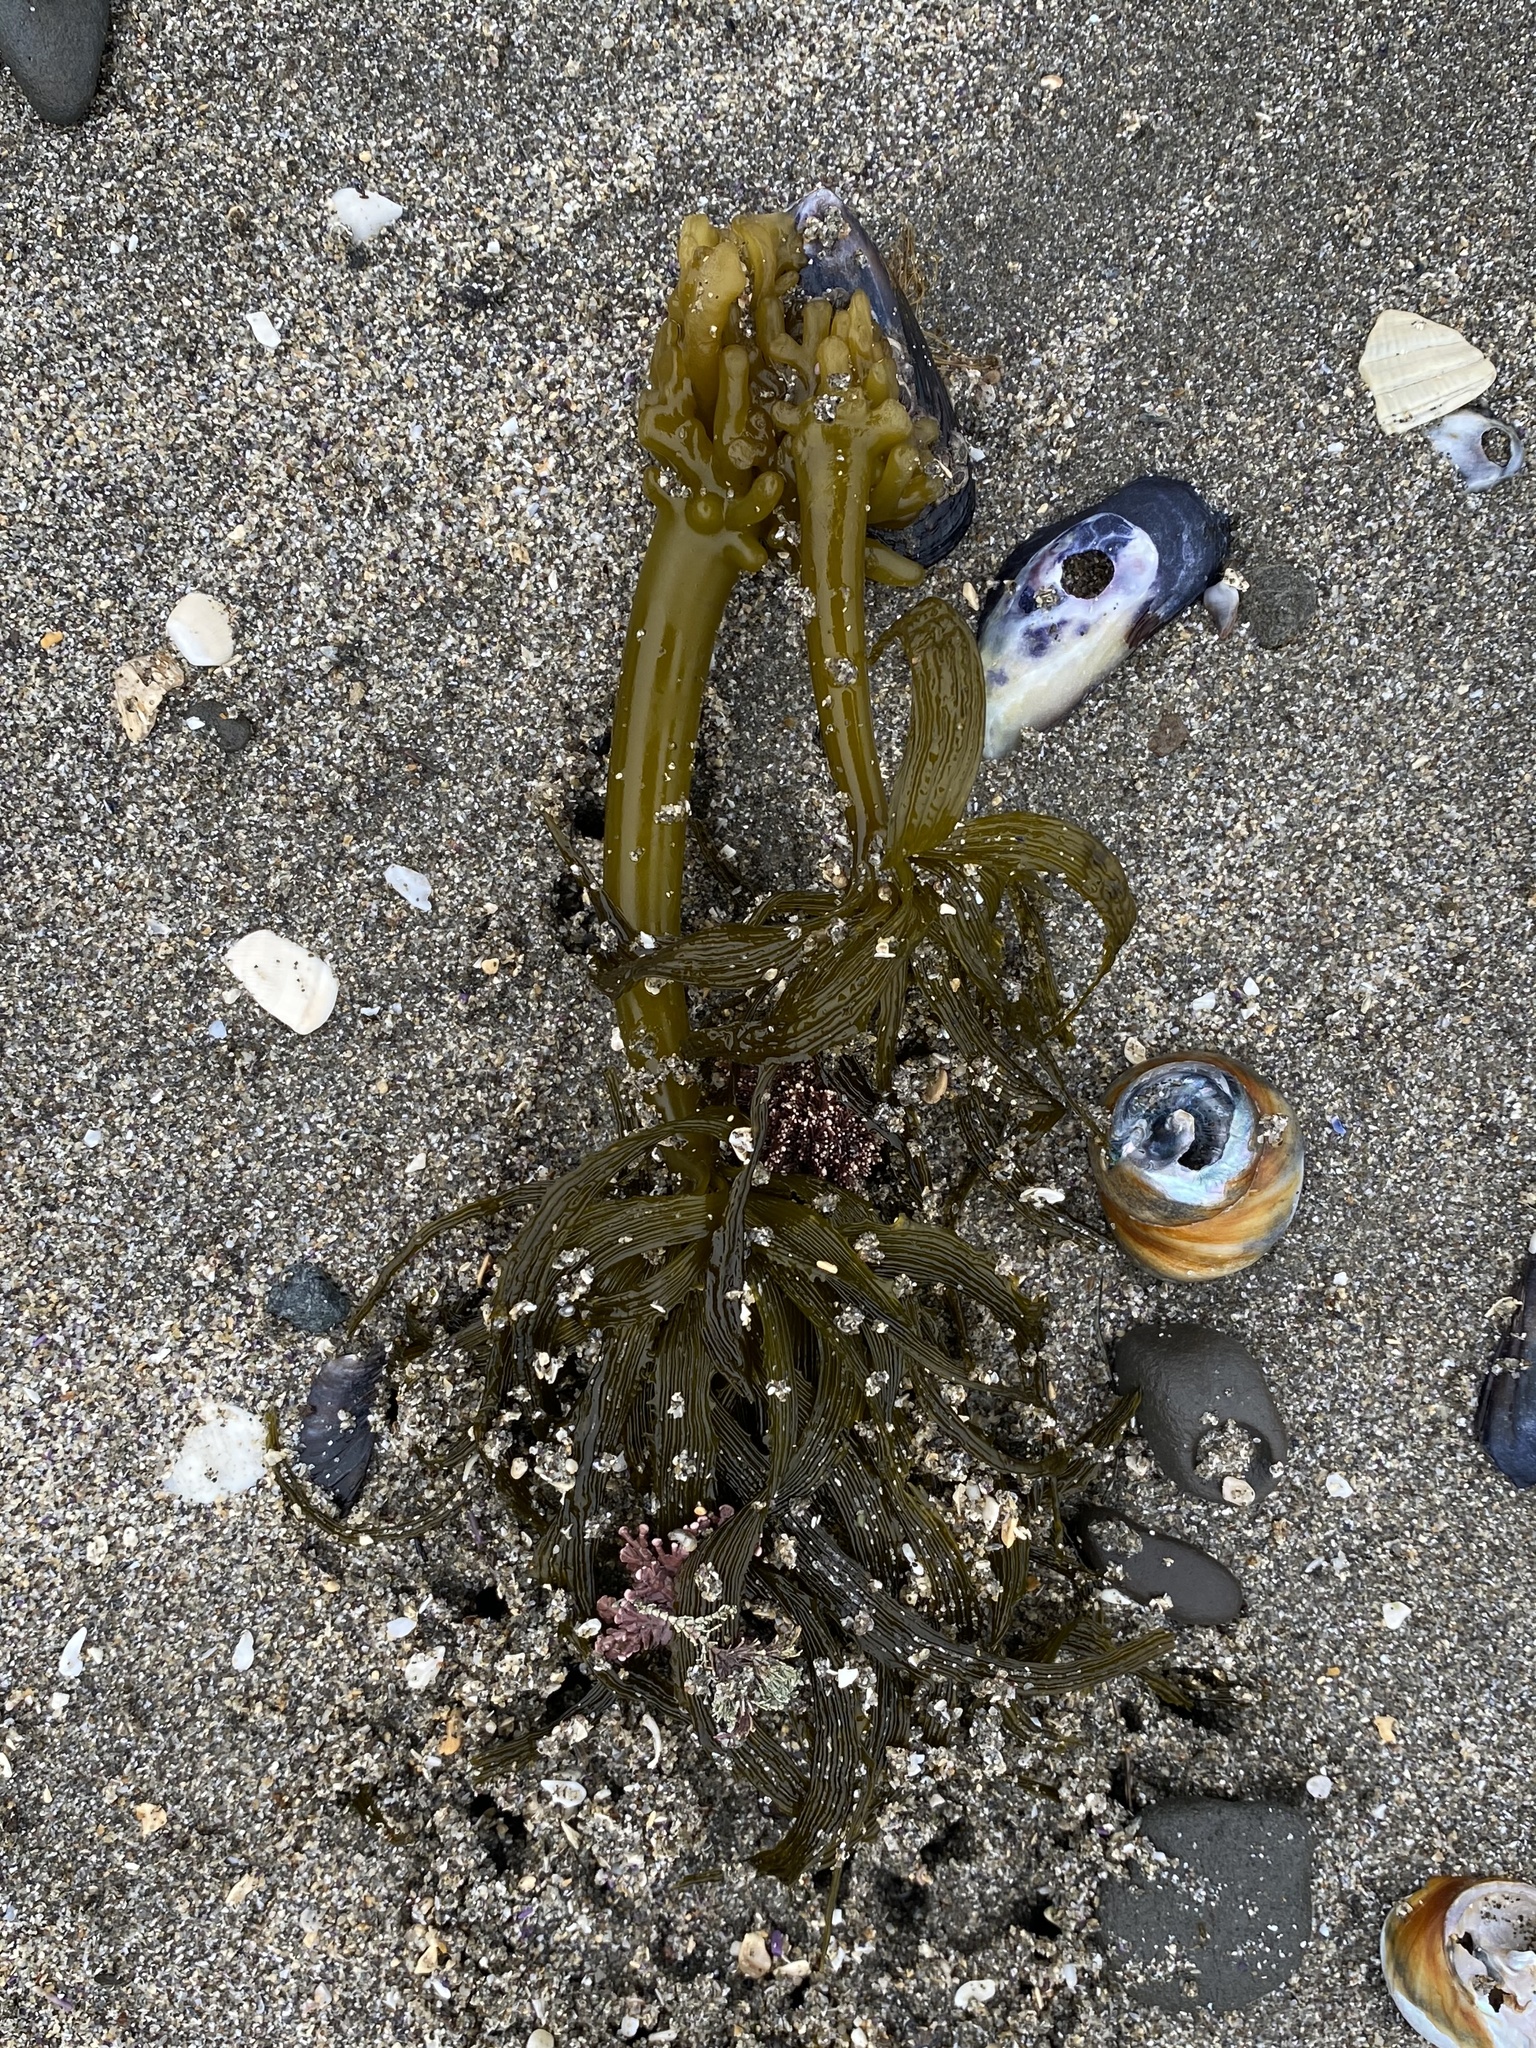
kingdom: Chromista
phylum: Ochrophyta
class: Phaeophyceae
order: Laminariales
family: Laminariaceae
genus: Postelsia
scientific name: Postelsia palmiformis
